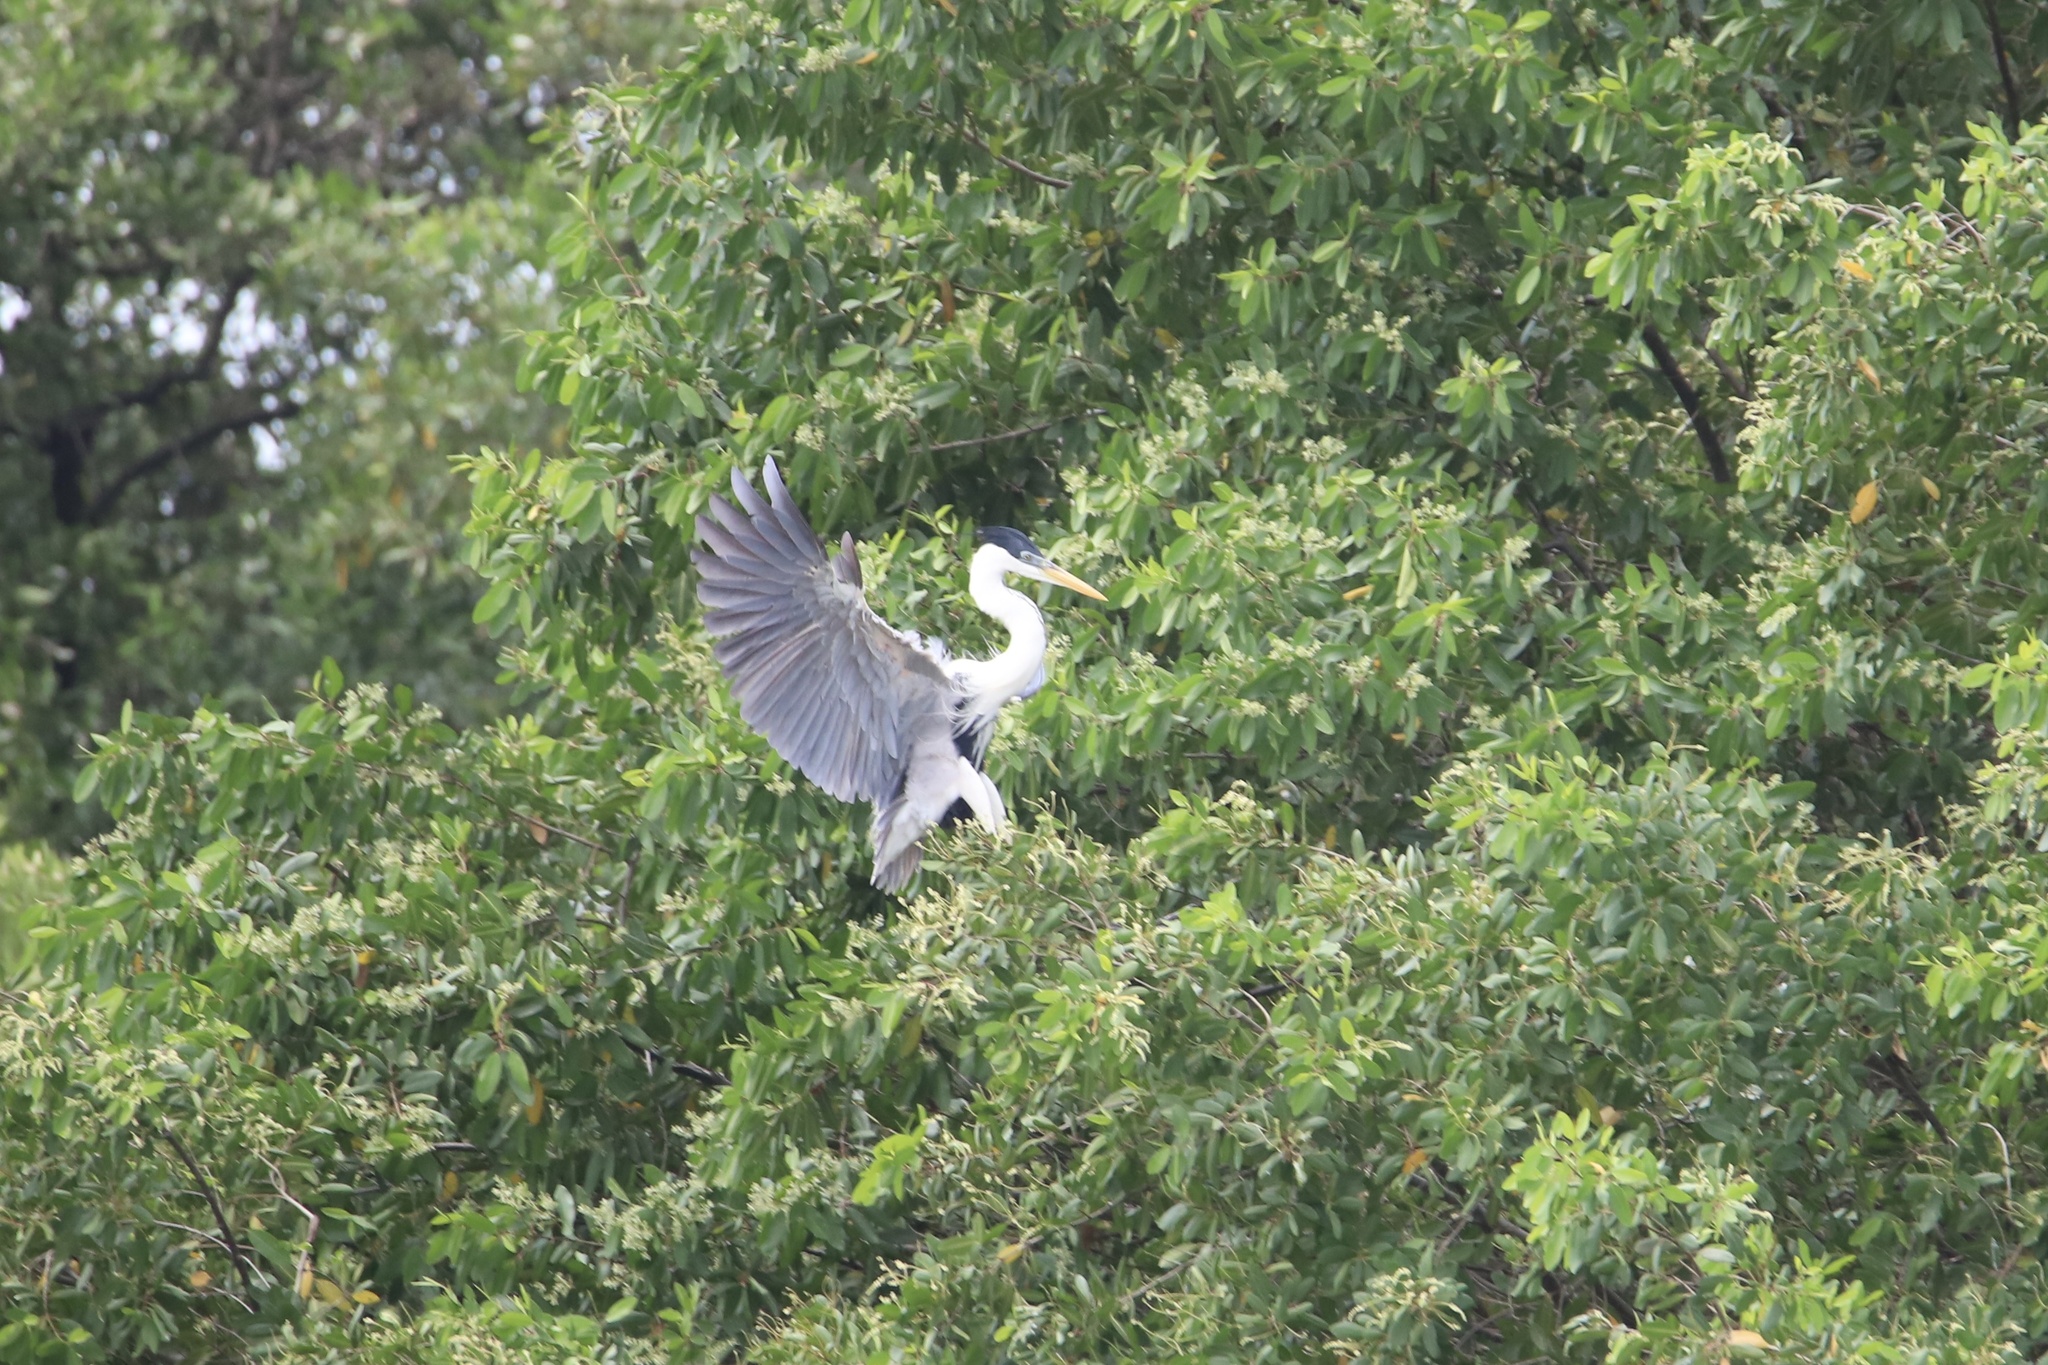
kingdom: Animalia
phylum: Chordata
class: Aves
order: Pelecaniformes
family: Ardeidae
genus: Ardea
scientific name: Ardea cocoi
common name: Cocoi heron
